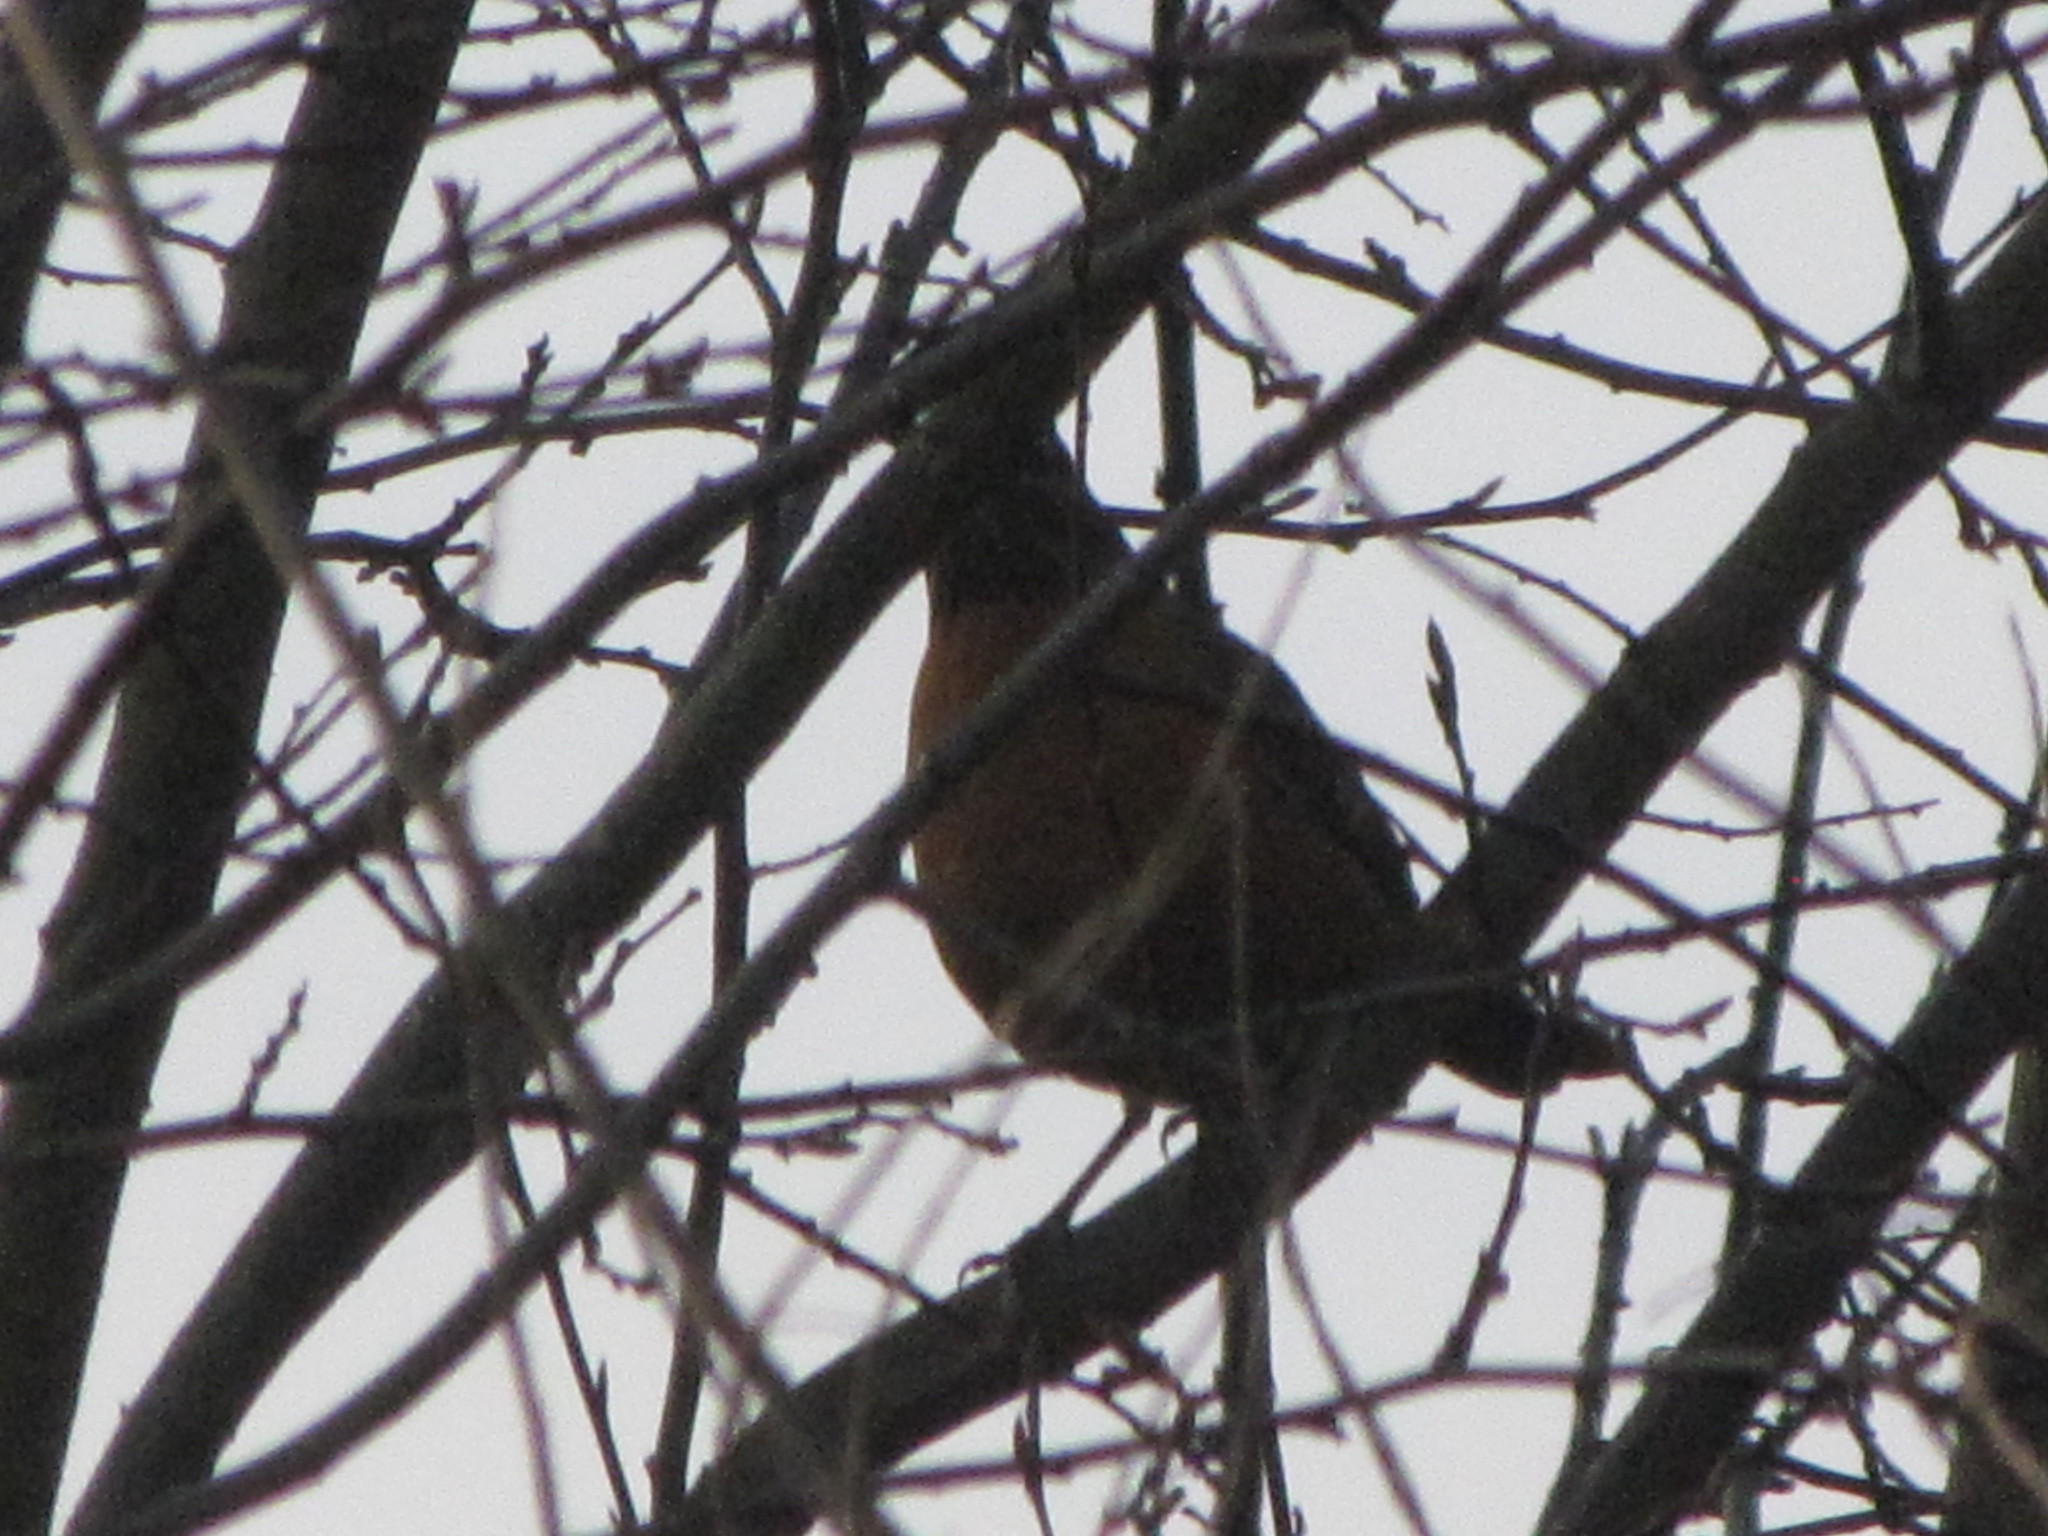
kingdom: Animalia
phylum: Chordata
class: Aves
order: Passeriformes
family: Turdidae
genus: Turdus
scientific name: Turdus migratorius
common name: American robin
